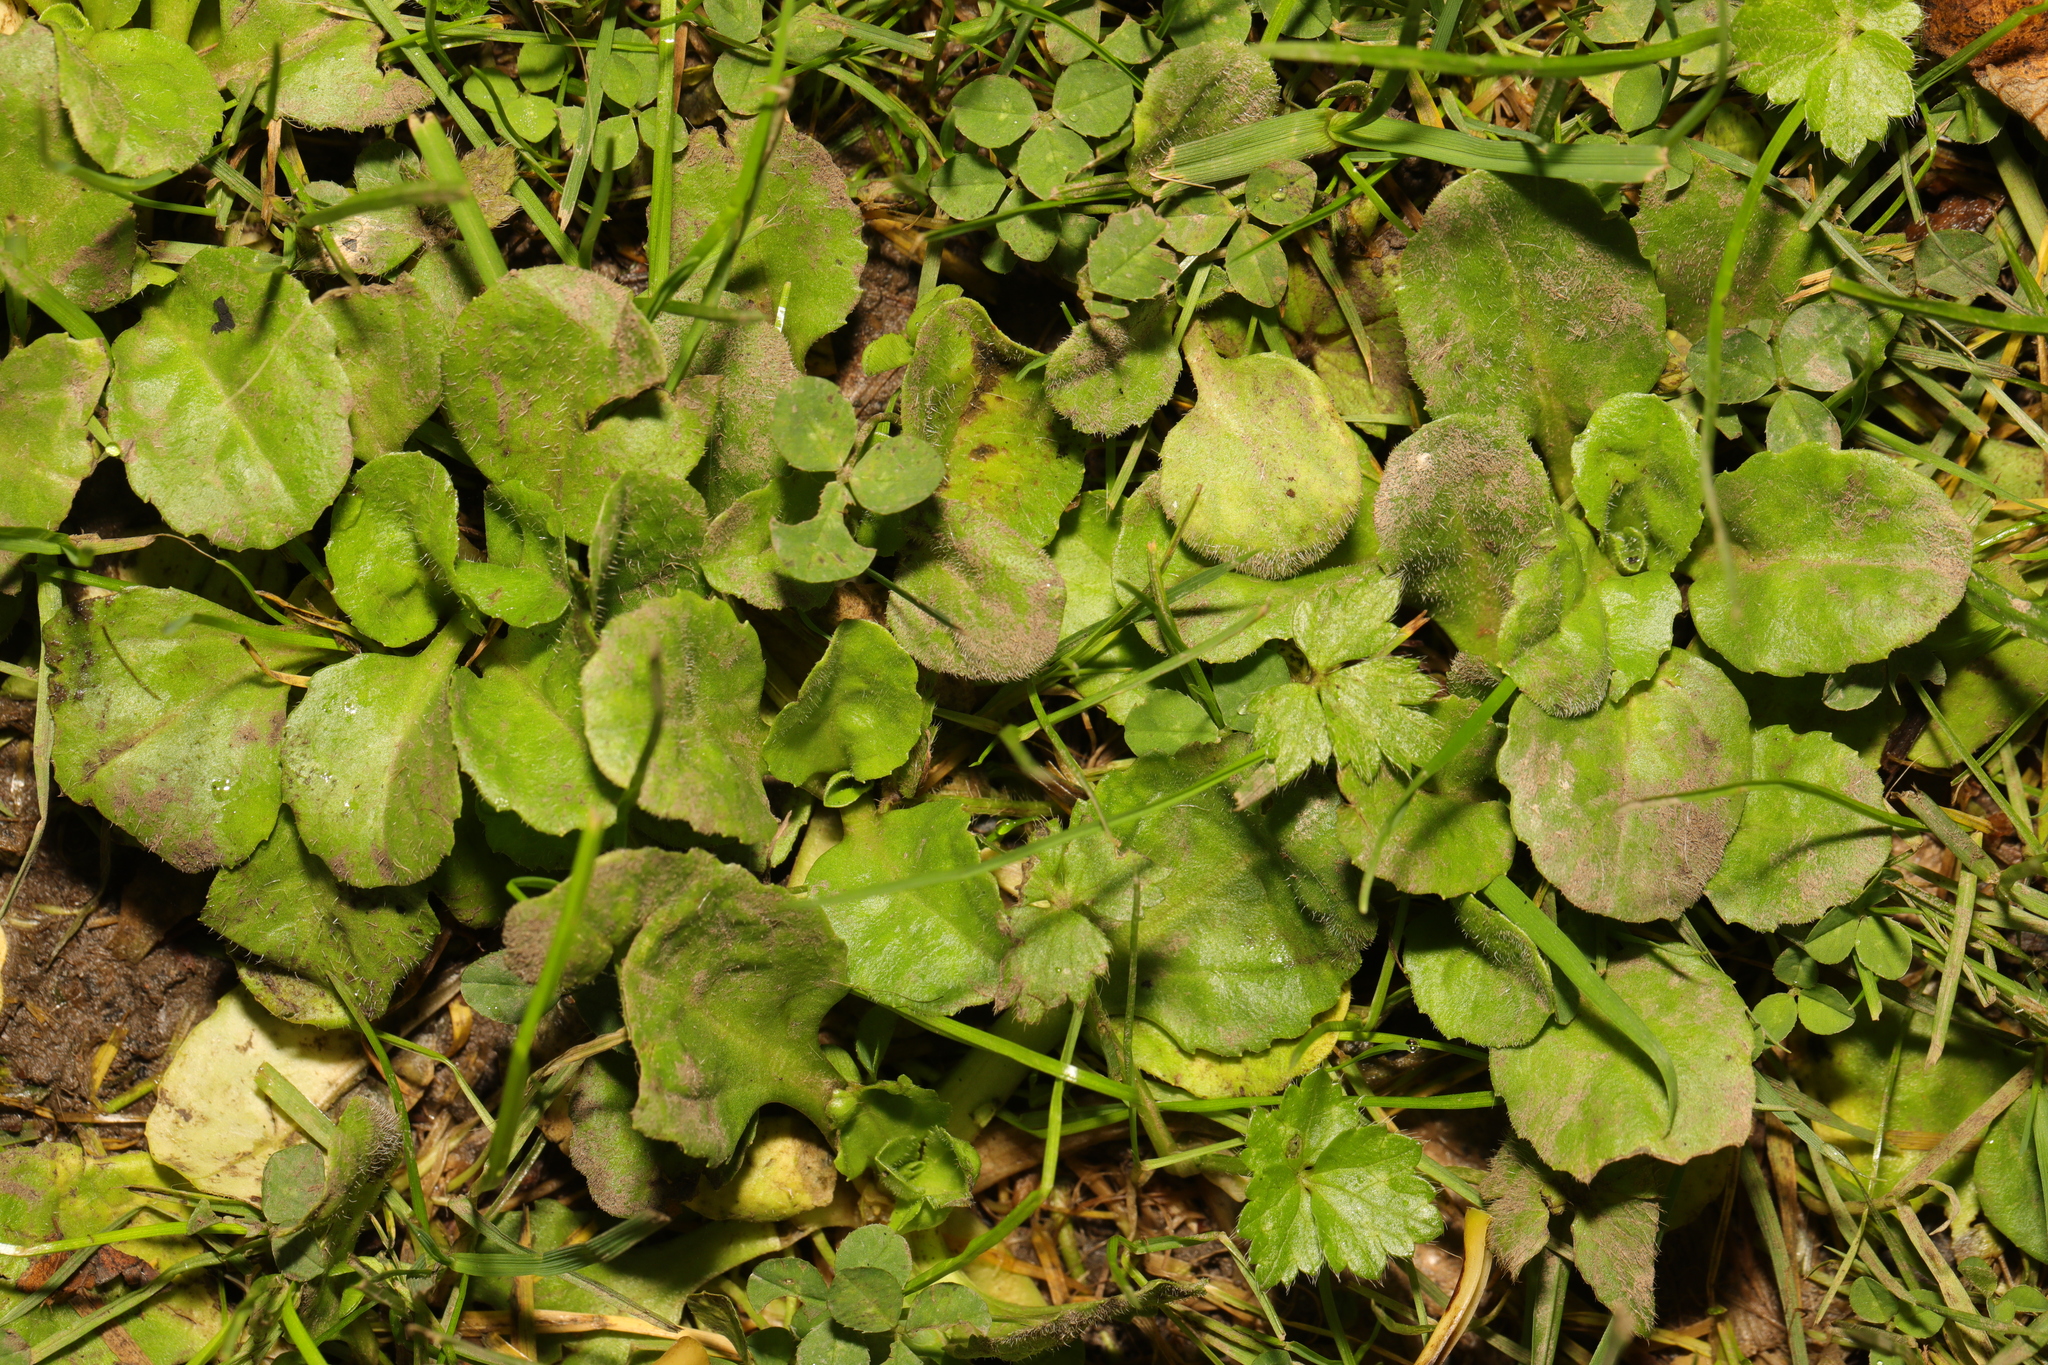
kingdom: Plantae
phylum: Tracheophyta
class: Magnoliopsida
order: Asterales
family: Asteraceae
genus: Bellis
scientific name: Bellis perennis
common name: Lawndaisy
